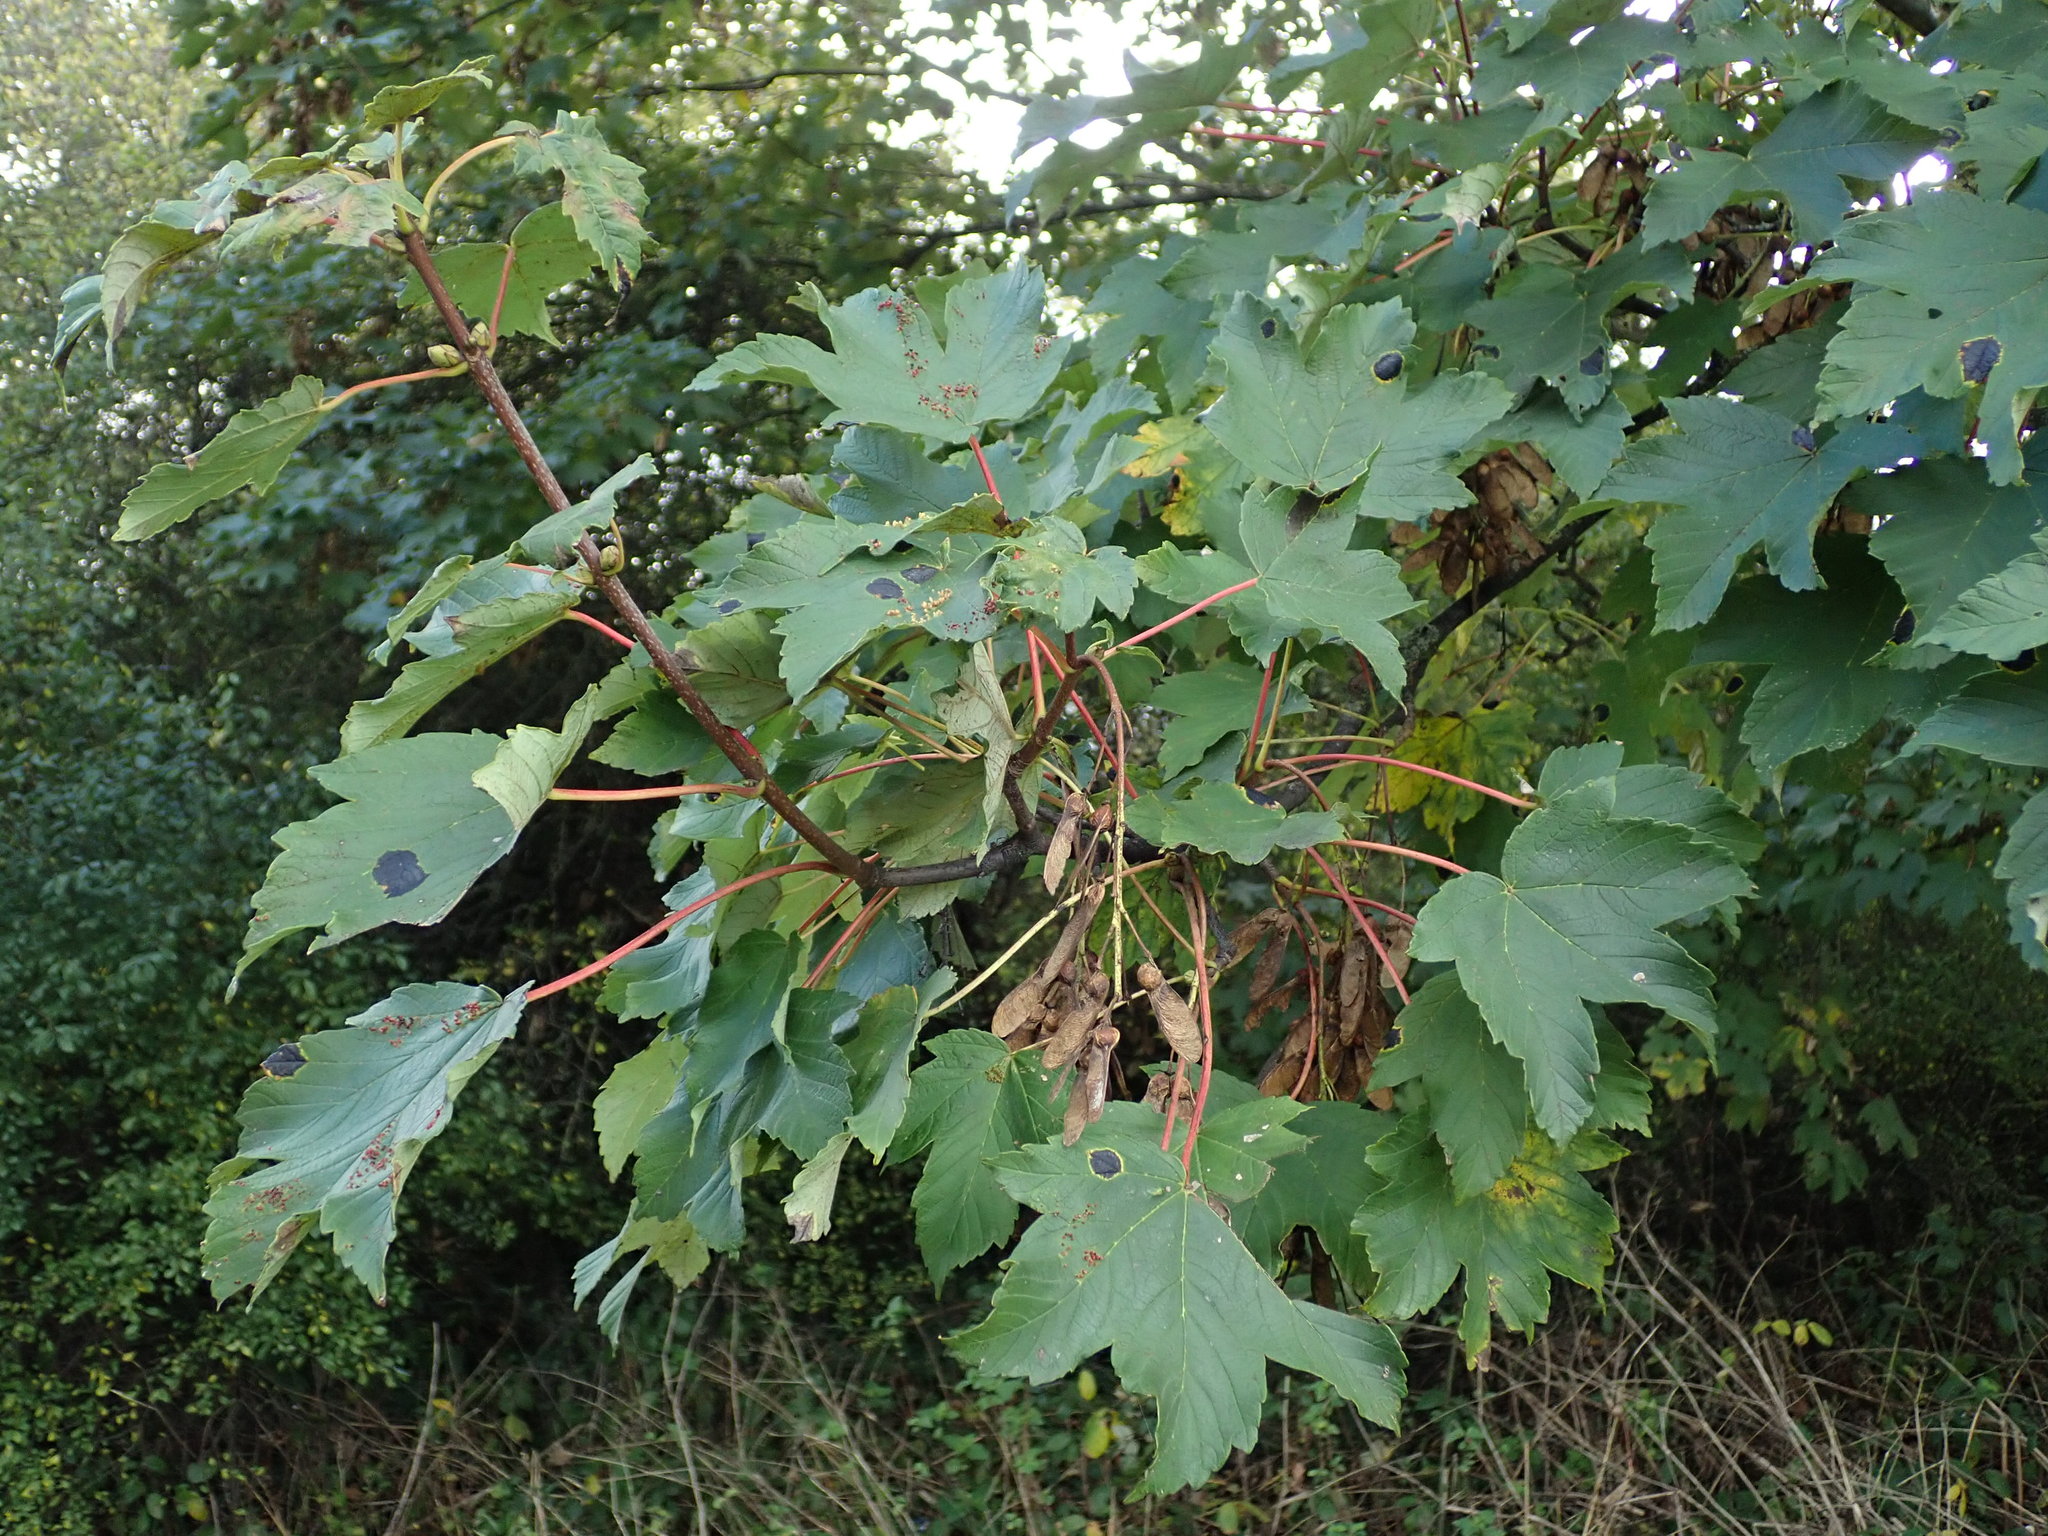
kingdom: Plantae
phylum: Tracheophyta
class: Magnoliopsida
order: Sapindales
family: Sapindaceae
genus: Acer
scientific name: Acer pseudoplatanus
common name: Sycamore
